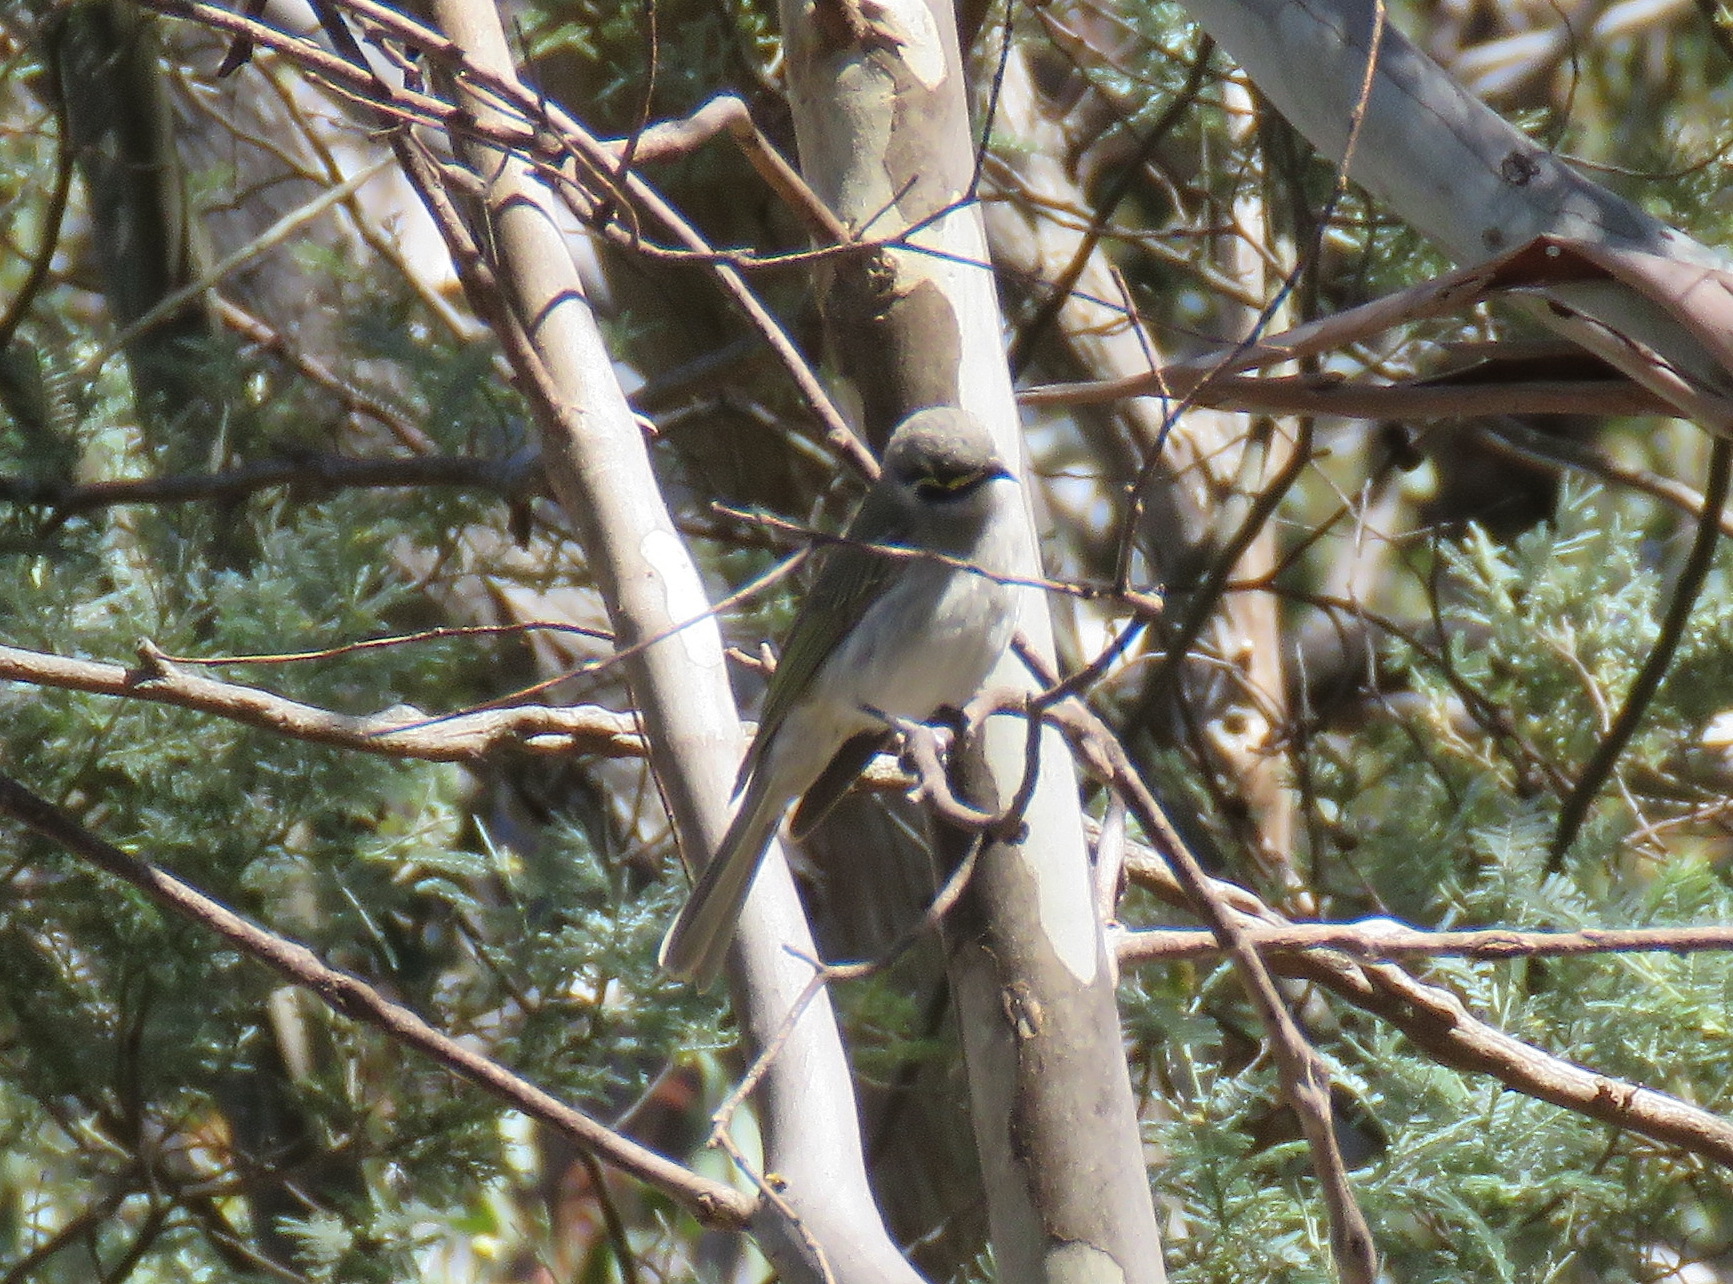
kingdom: Animalia
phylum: Chordata
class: Aves
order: Passeriformes
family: Meliphagidae
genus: Caligavis
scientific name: Caligavis chrysops
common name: Yellow-faced honeyeater
